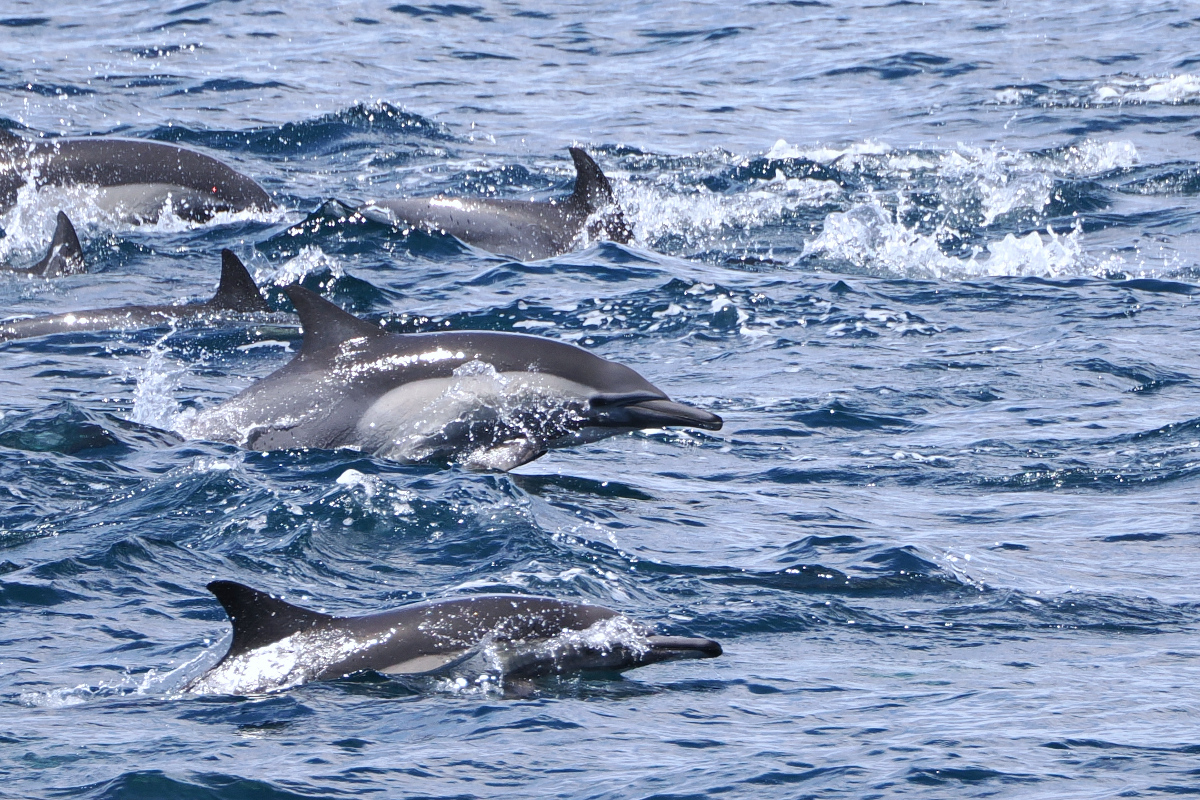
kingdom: Animalia
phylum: Chordata
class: Mammalia
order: Cetacea
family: Delphinidae
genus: Delphinus
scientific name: Delphinus delphis
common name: Common dolphin
